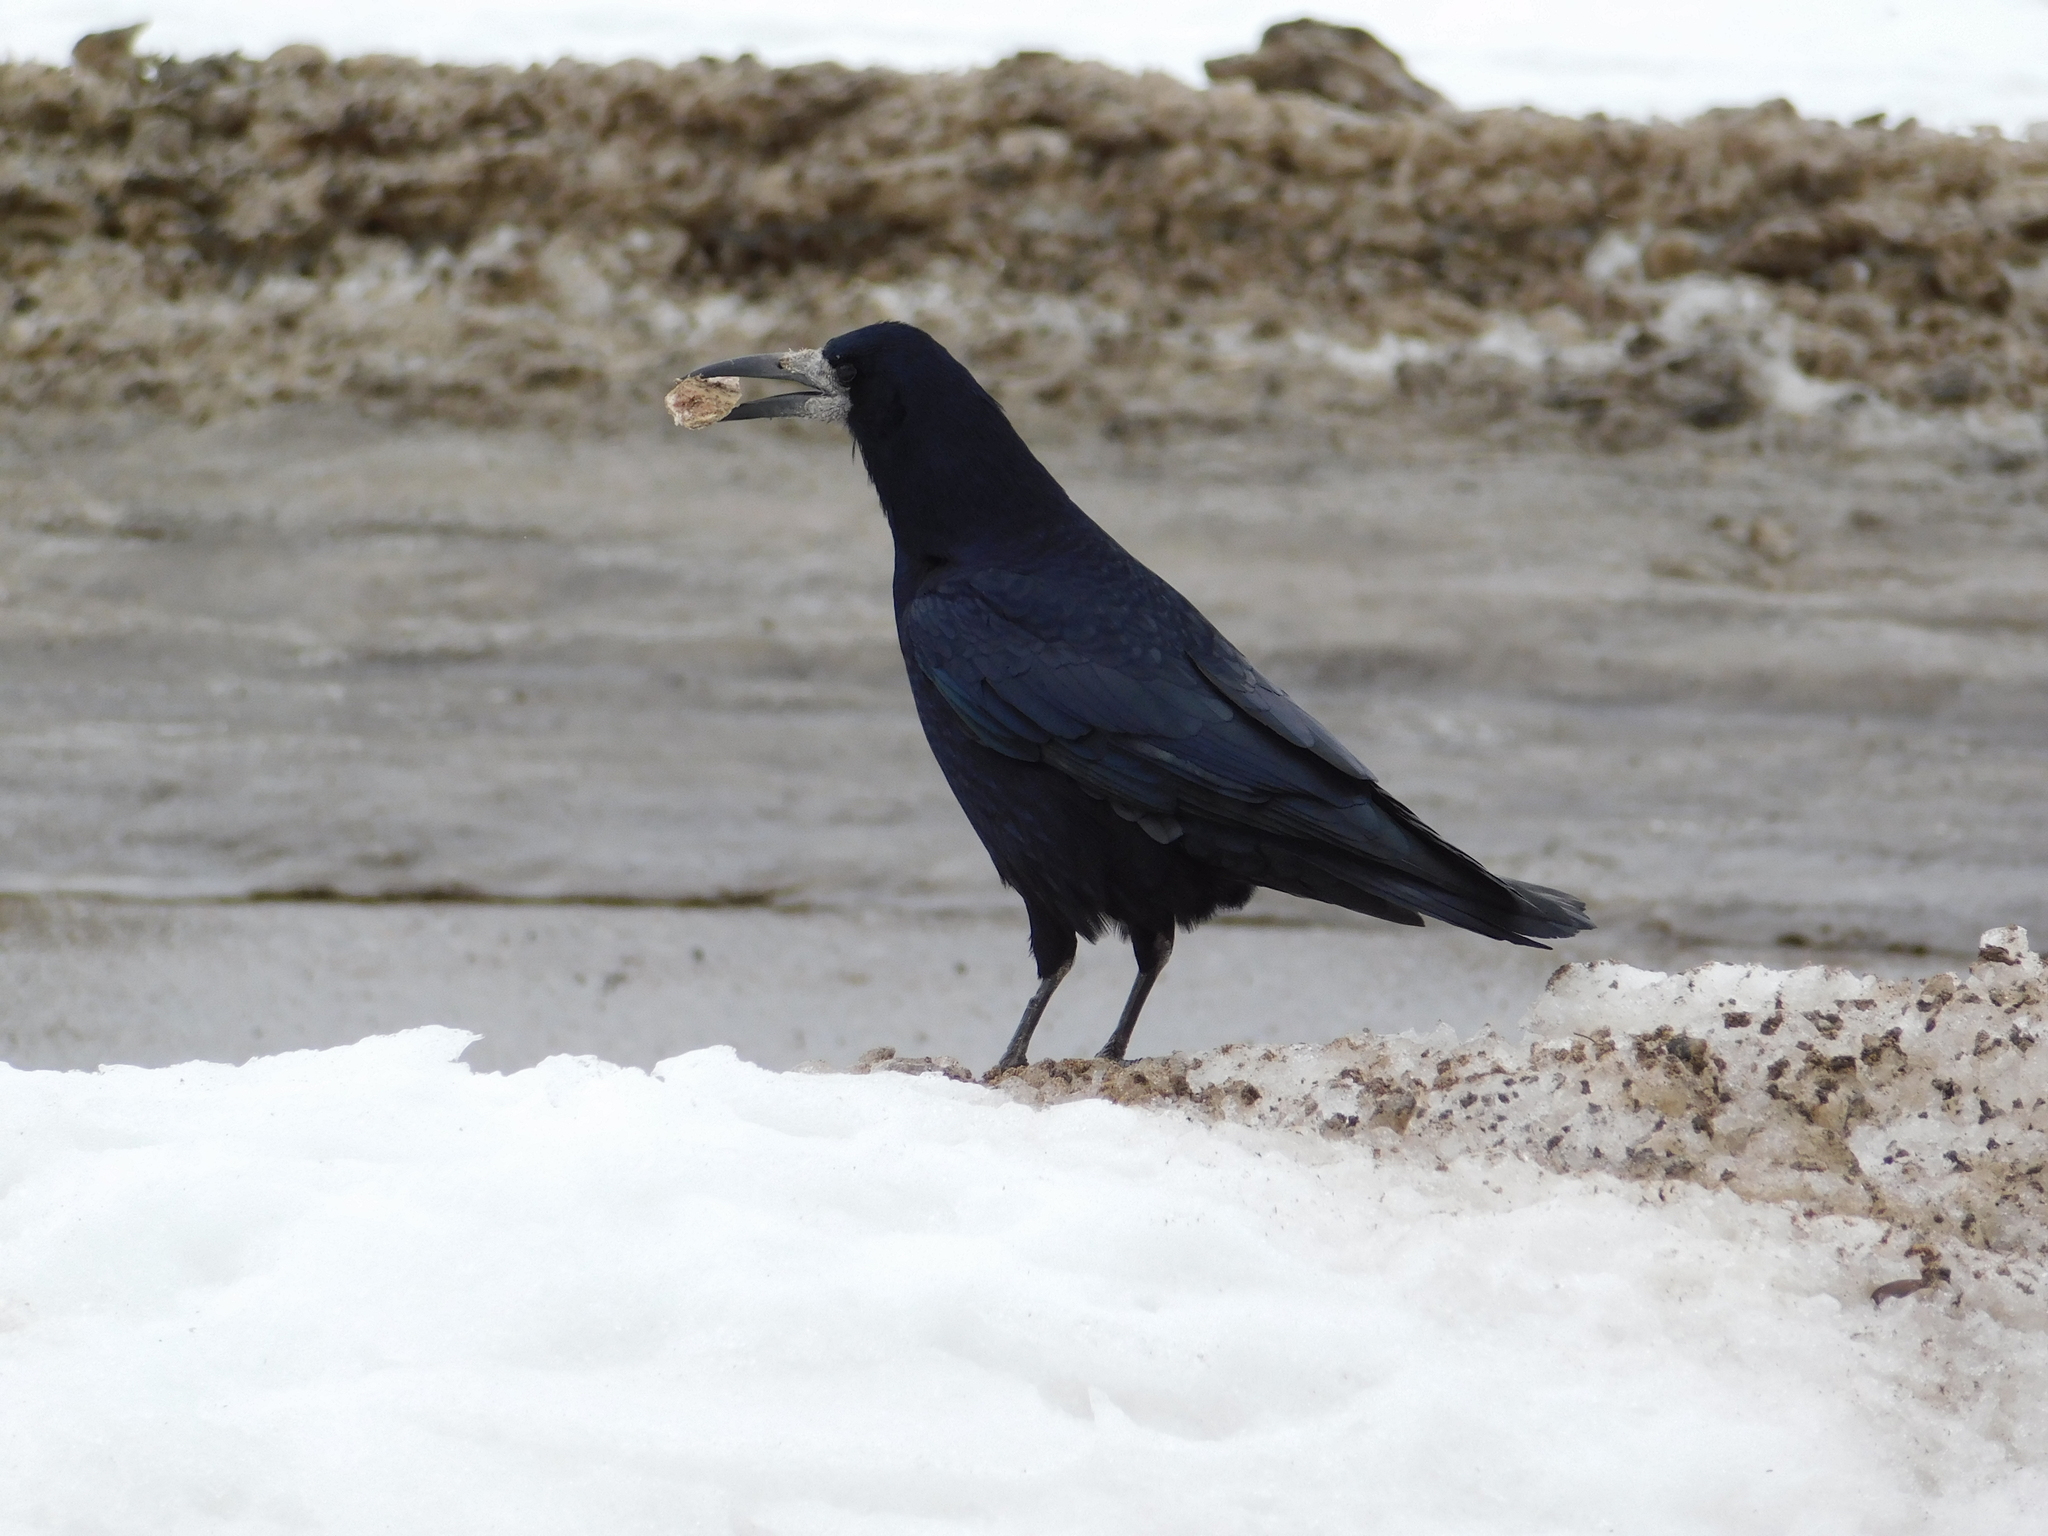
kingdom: Animalia
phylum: Chordata
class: Aves
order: Passeriformes
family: Corvidae
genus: Corvus
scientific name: Corvus frugilegus
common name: Rook
